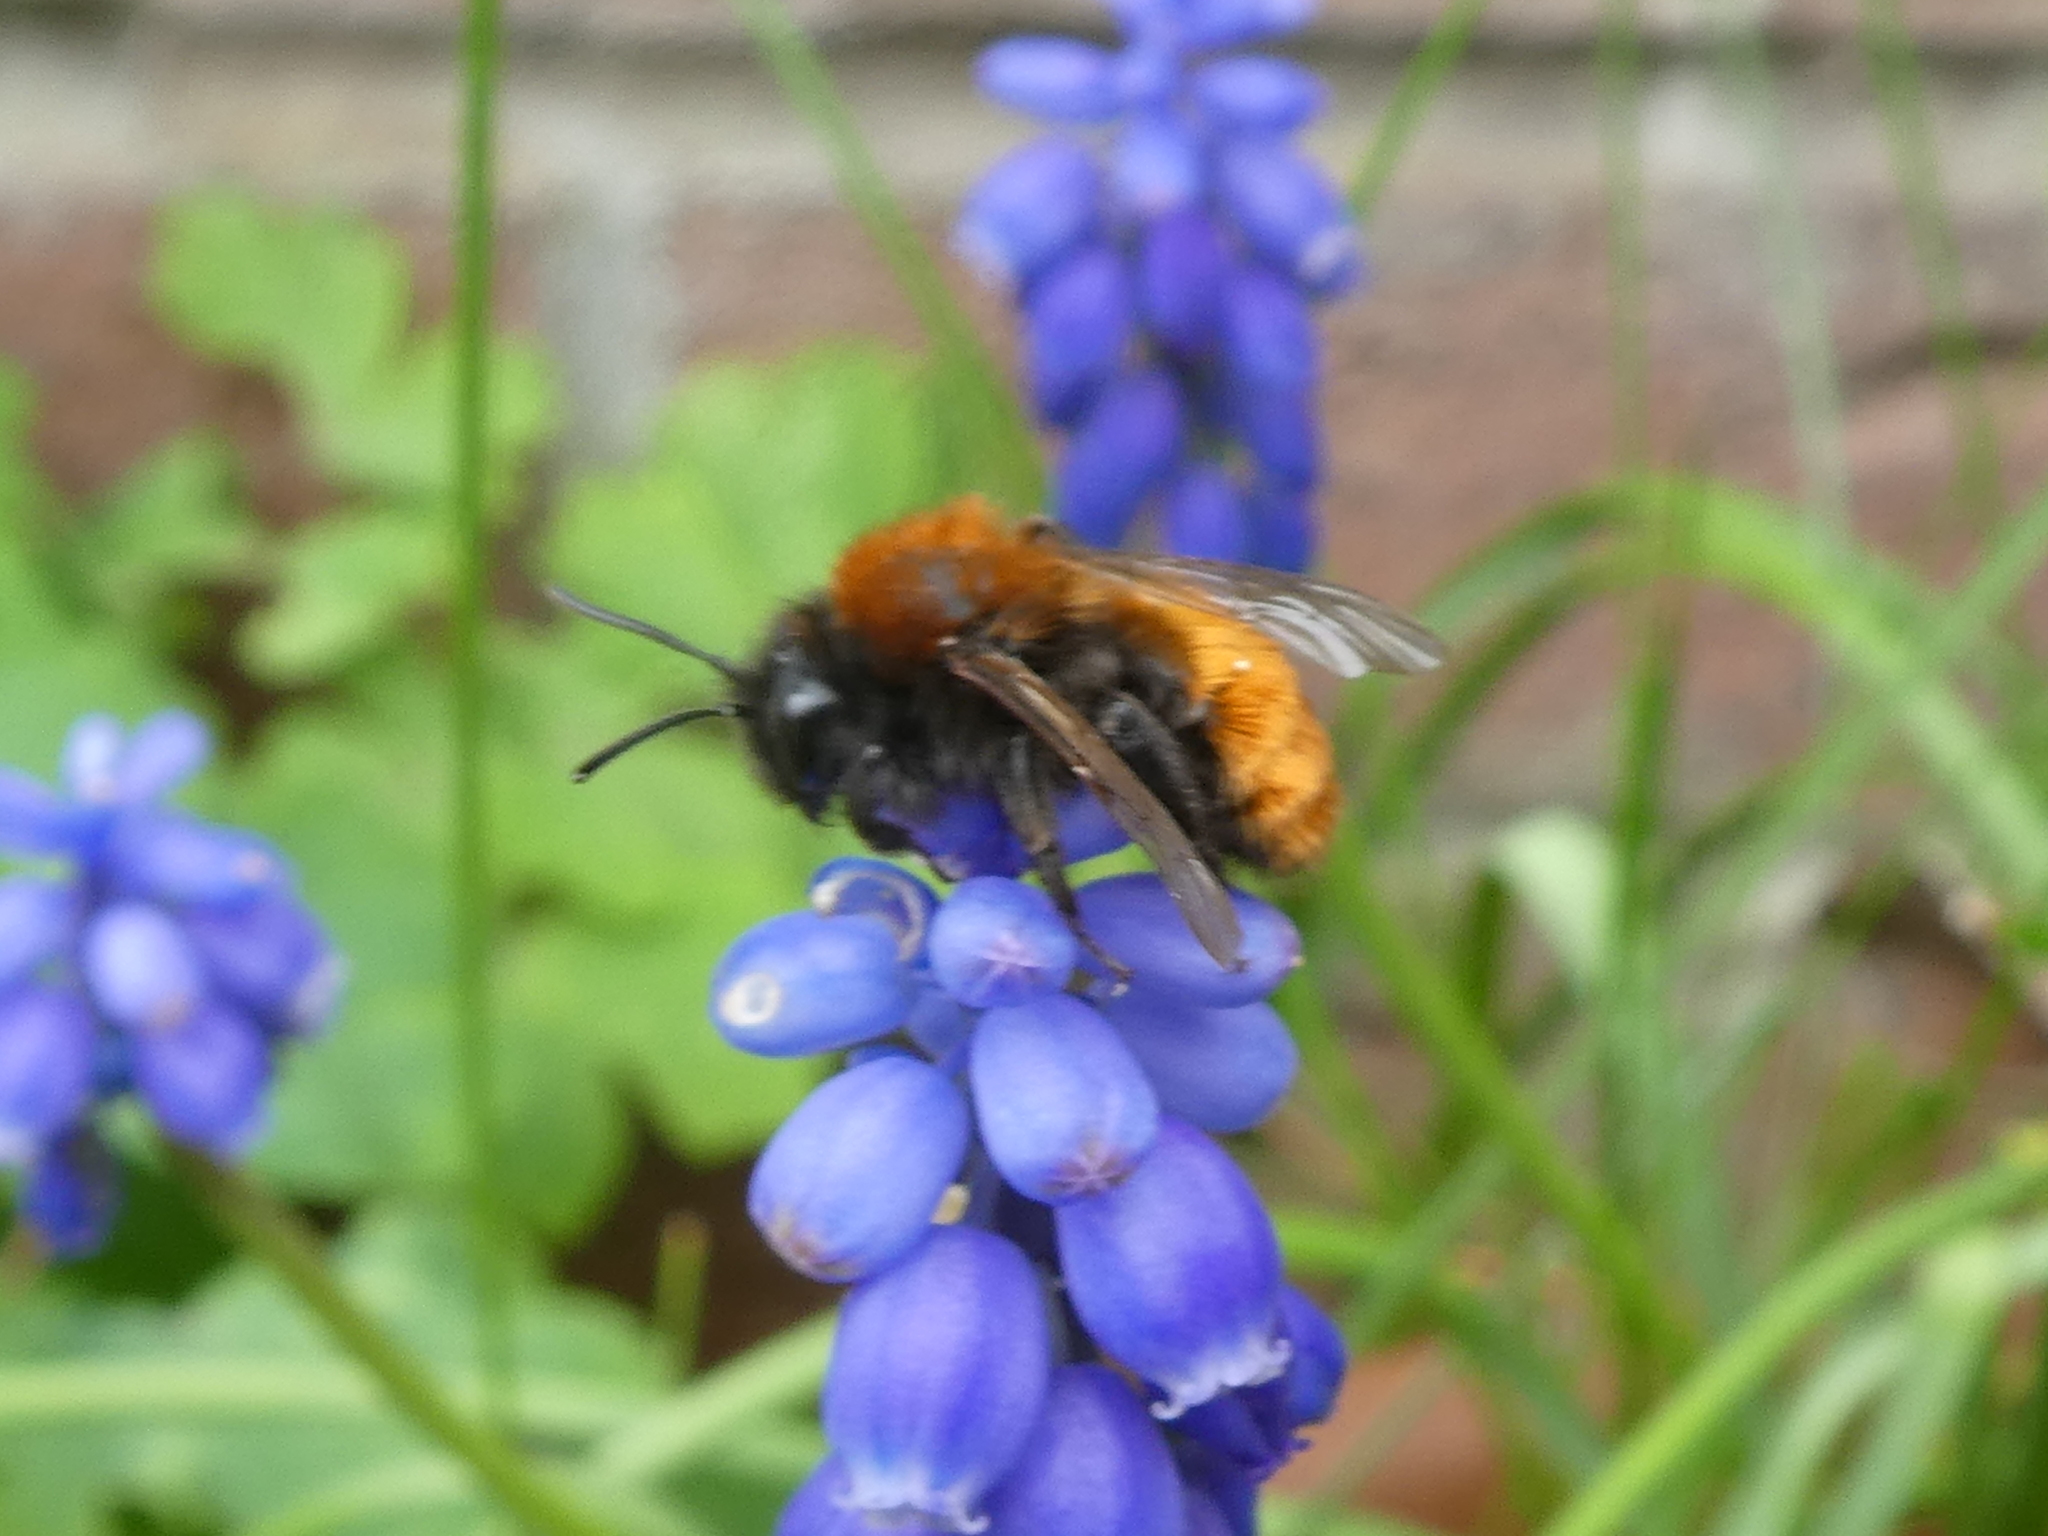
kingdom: Animalia
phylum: Arthropoda
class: Insecta
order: Hymenoptera
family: Andrenidae
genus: Andrena
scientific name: Andrena fulva
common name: Tawny mining bee
